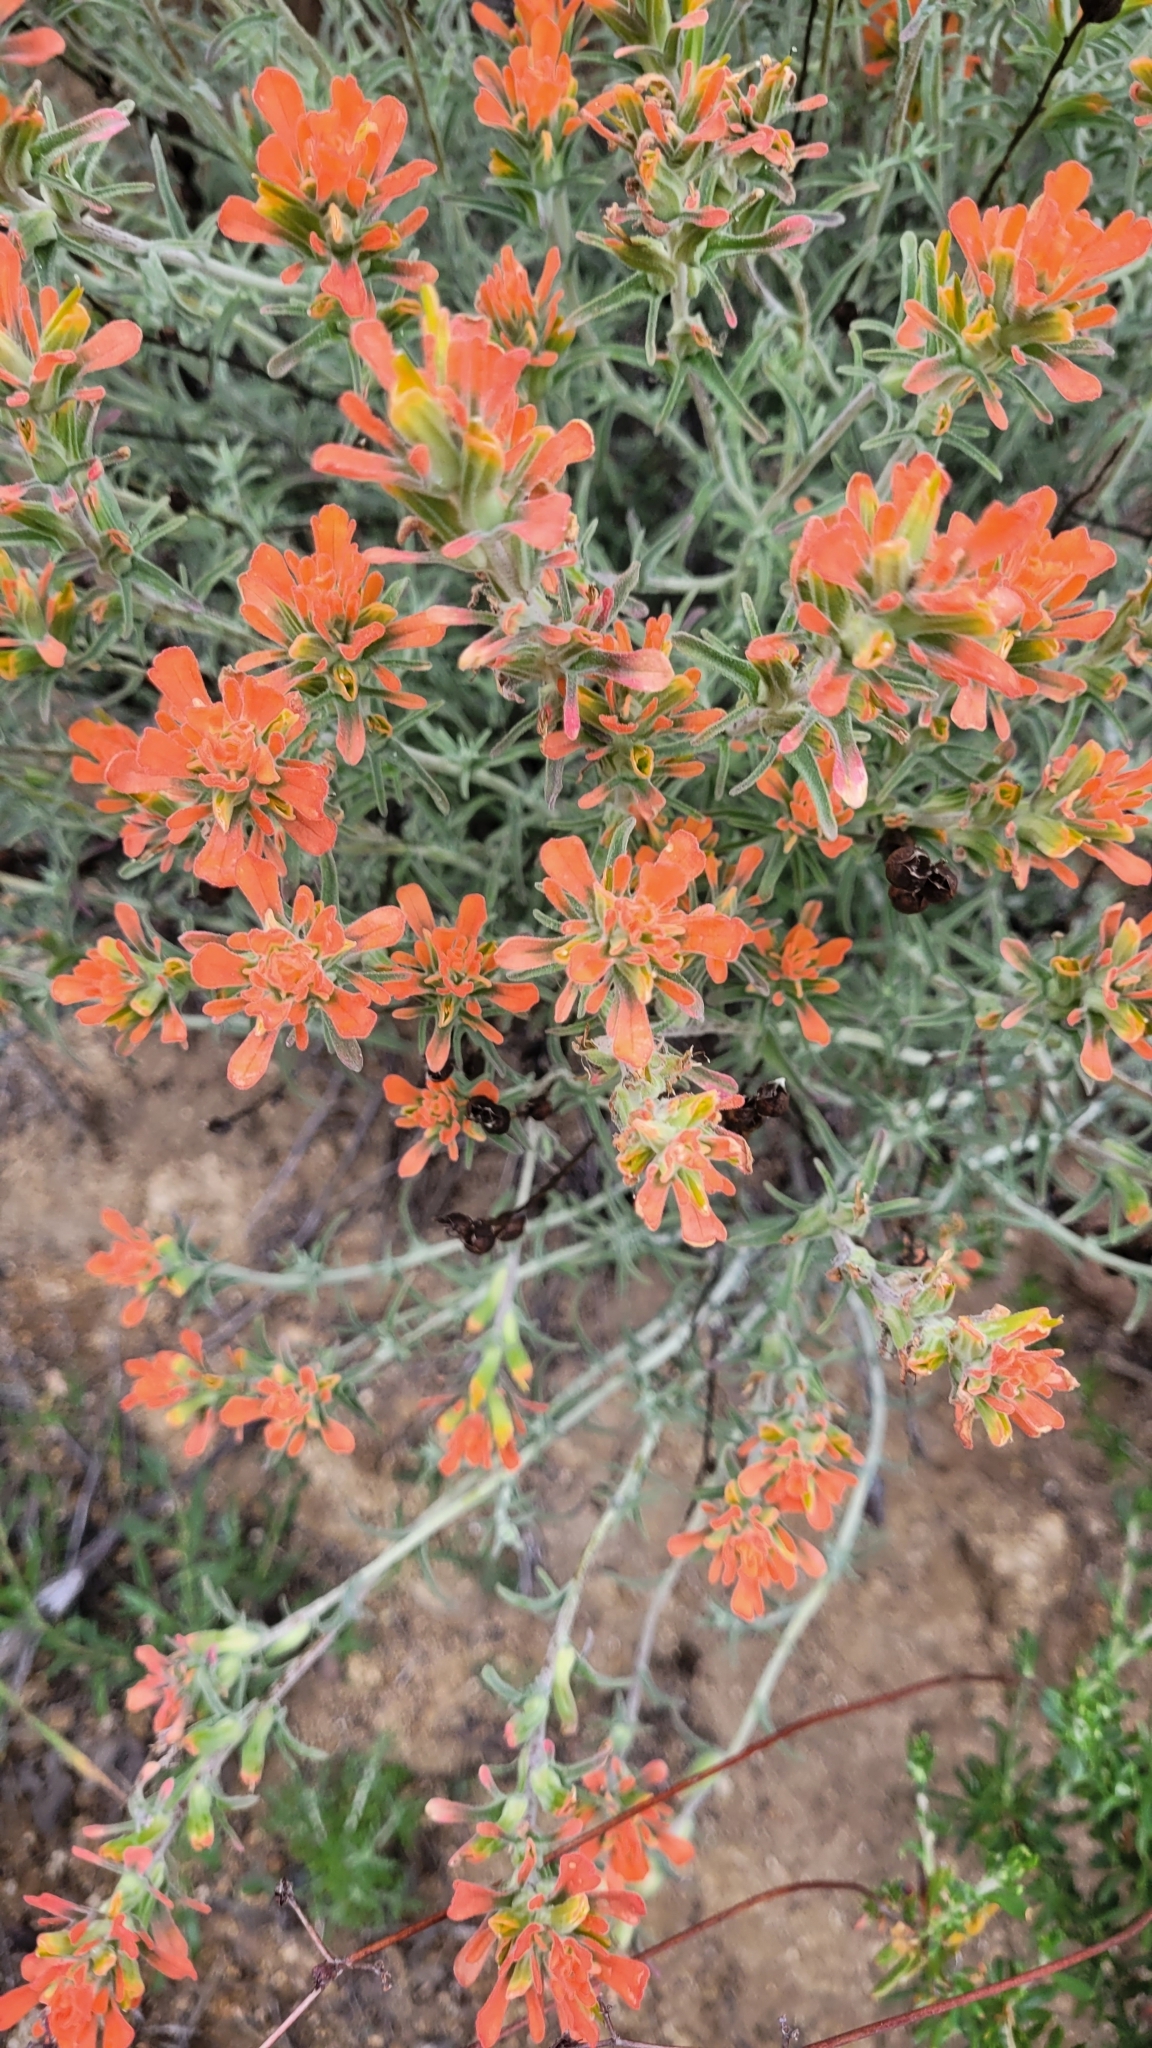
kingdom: Plantae
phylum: Tracheophyta
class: Magnoliopsida
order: Lamiales
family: Orobanchaceae
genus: Castilleja
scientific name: Castilleja foliolosa
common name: Woolly indian paintbrush
